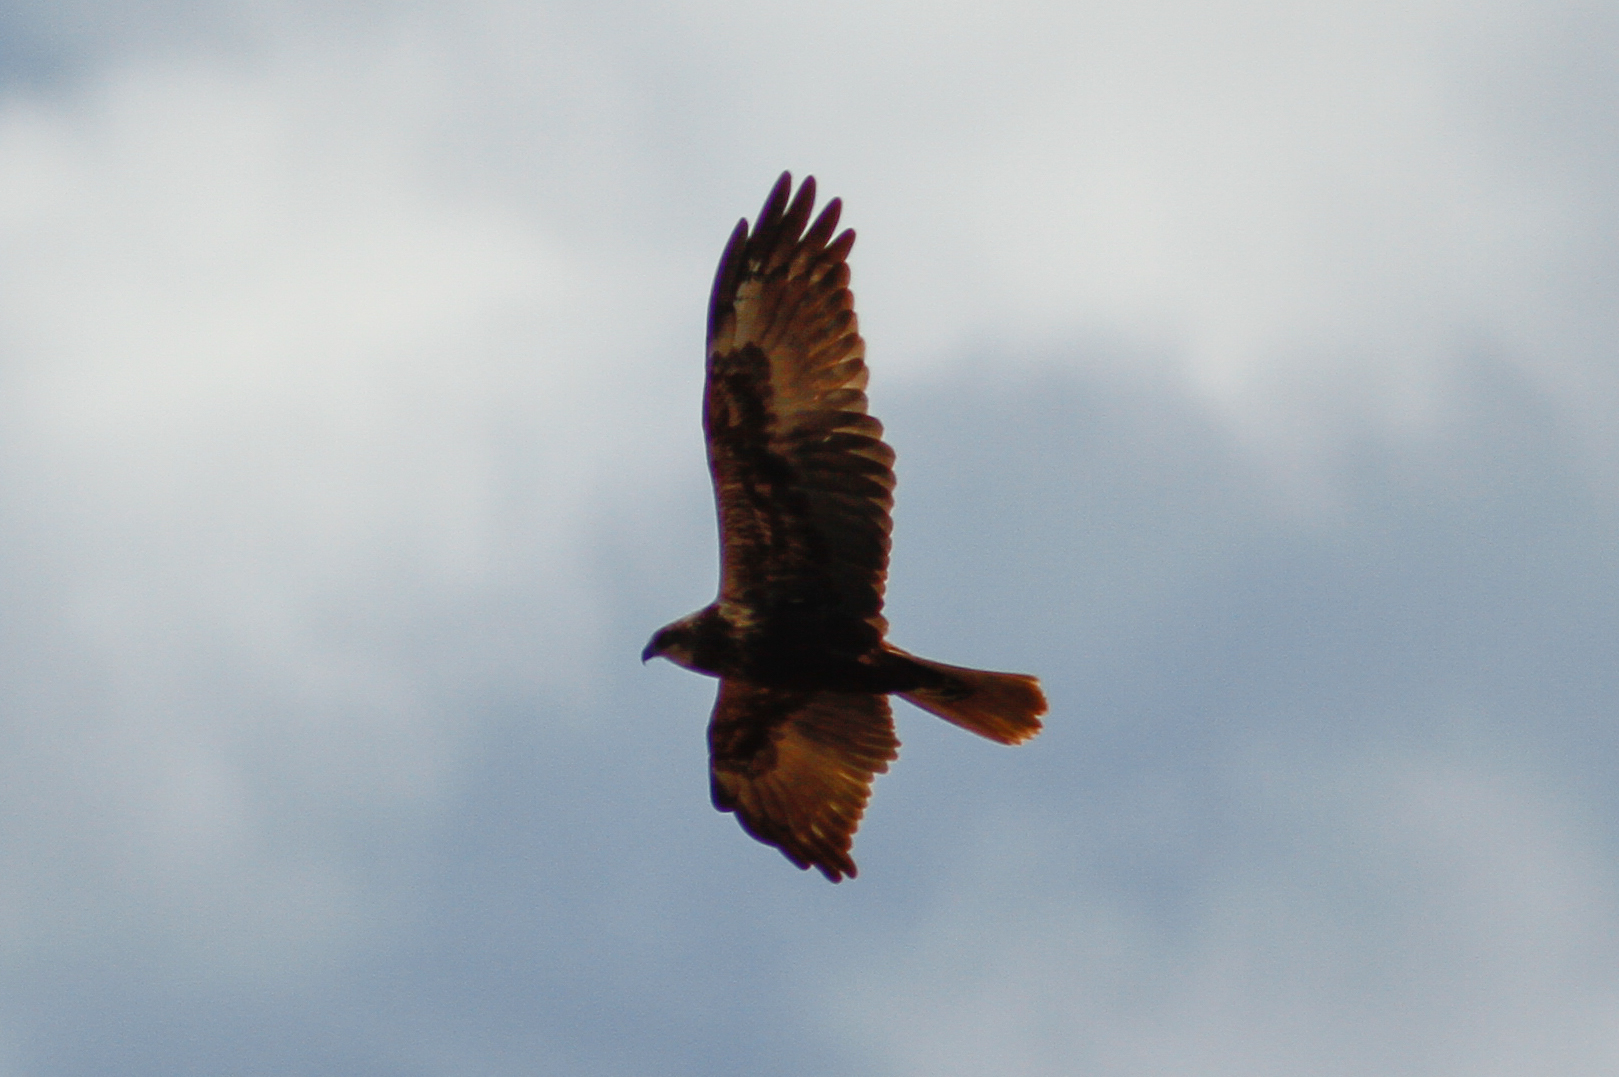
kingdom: Animalia
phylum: Chordata
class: Aves
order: Accipitriformes
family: Accipitridae
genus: Circus
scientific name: Circus aeruginosus
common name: Western marsh harrier
